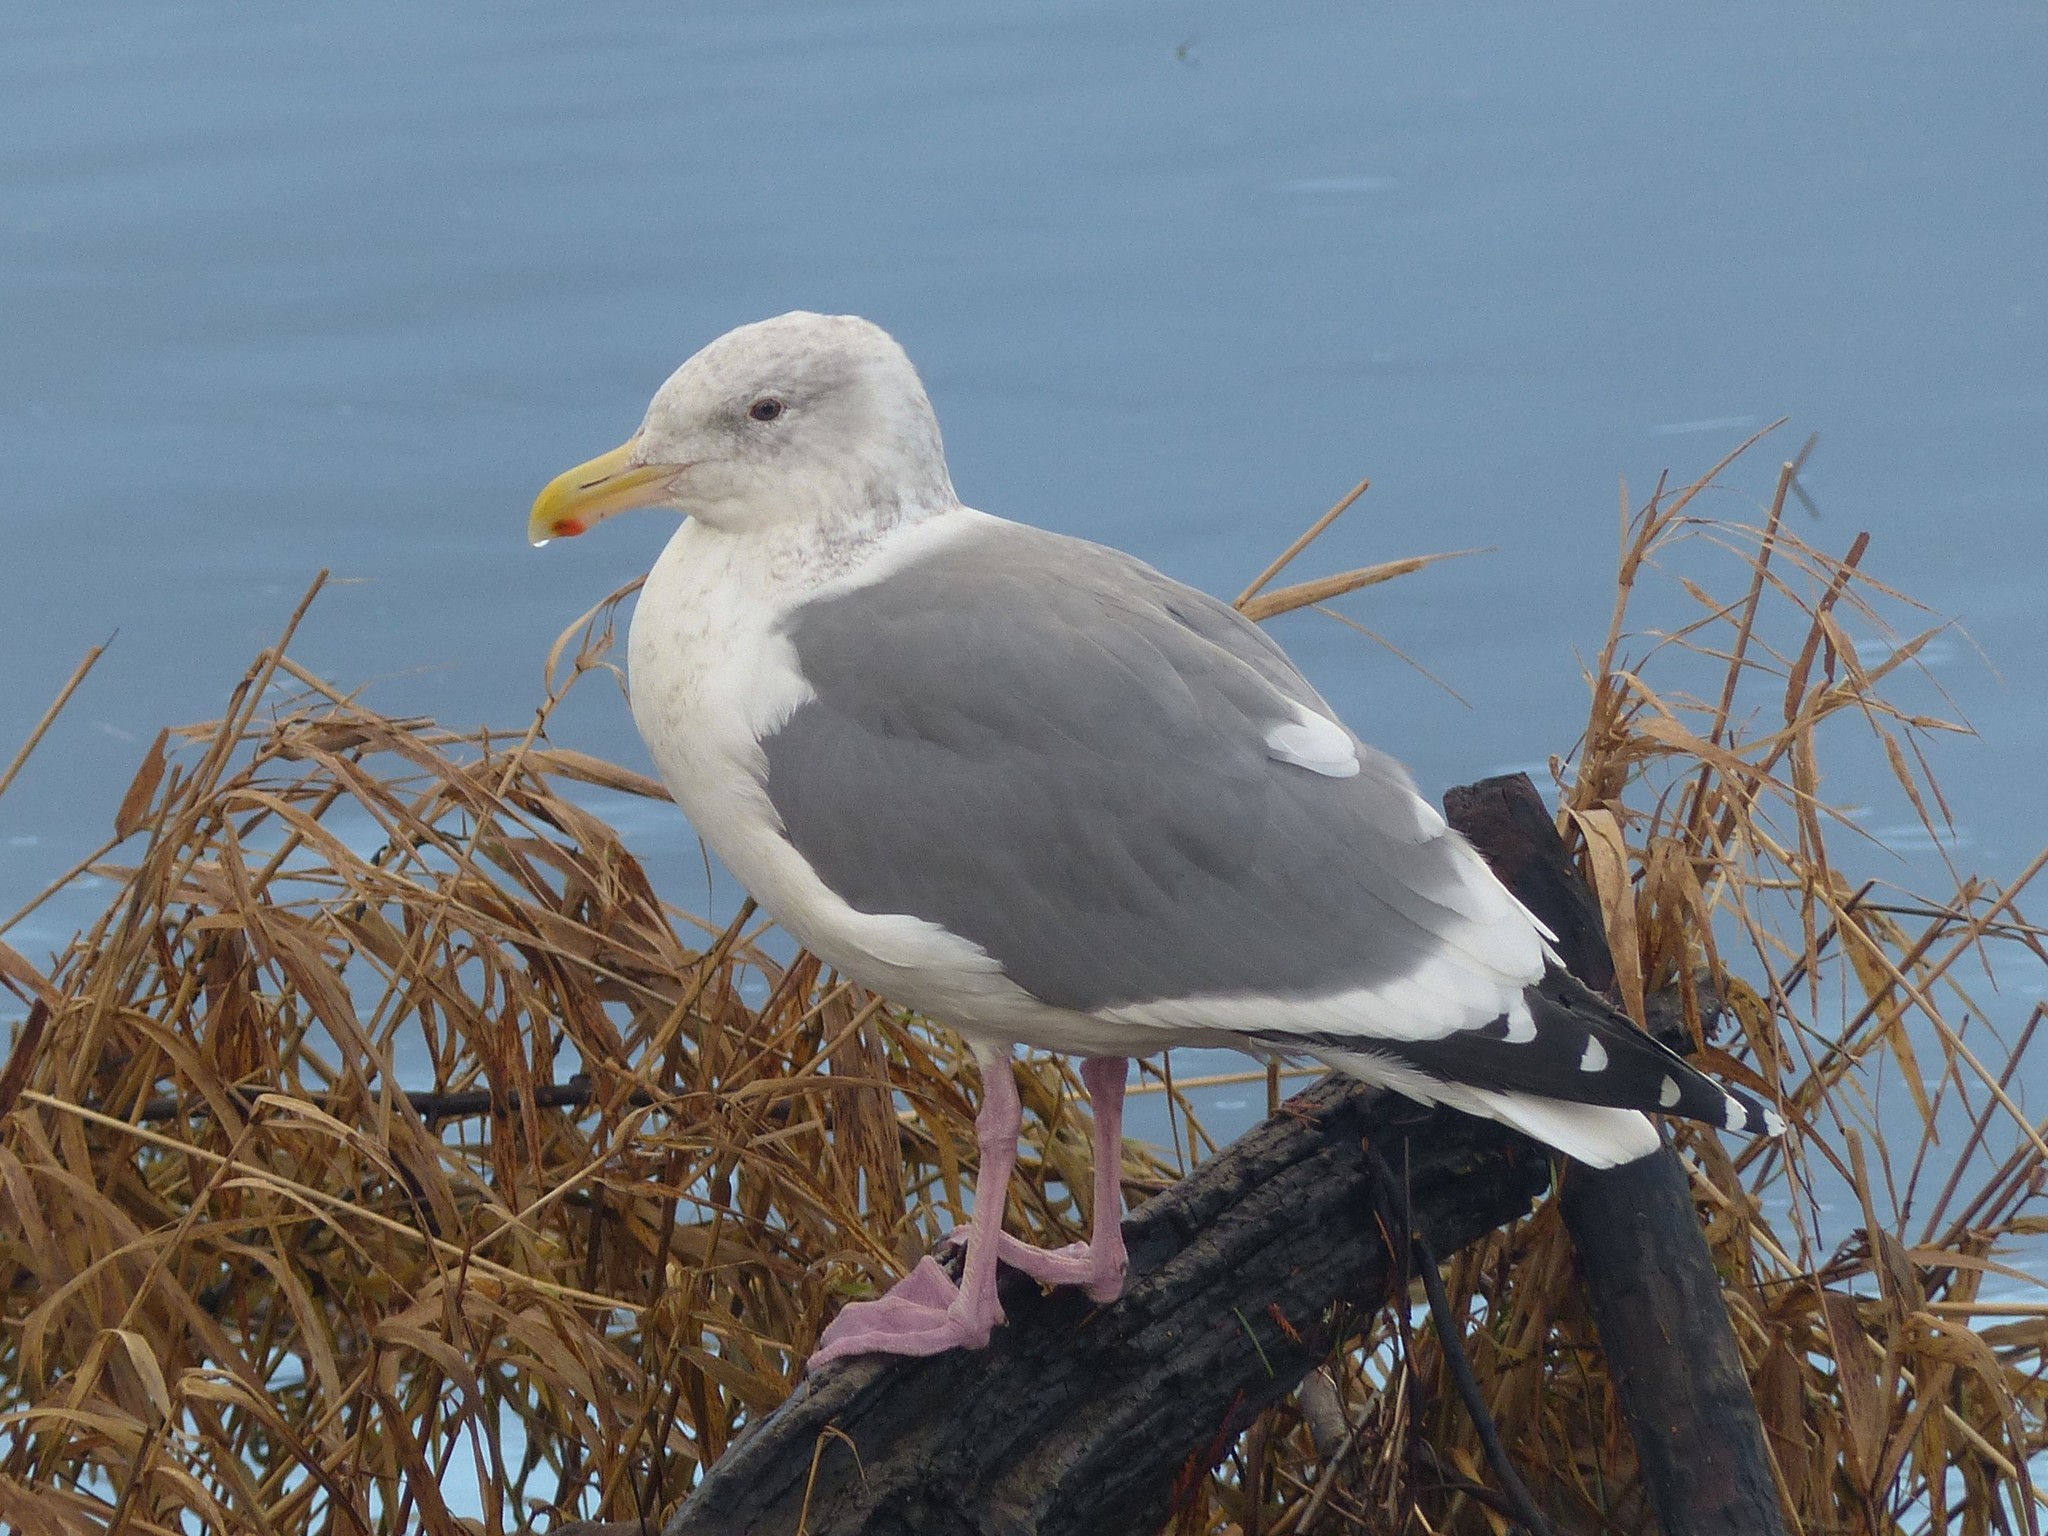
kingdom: Animalia
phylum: Chordata
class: Aves
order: Charadriiformes
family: Laridae
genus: Larus
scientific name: Larus
